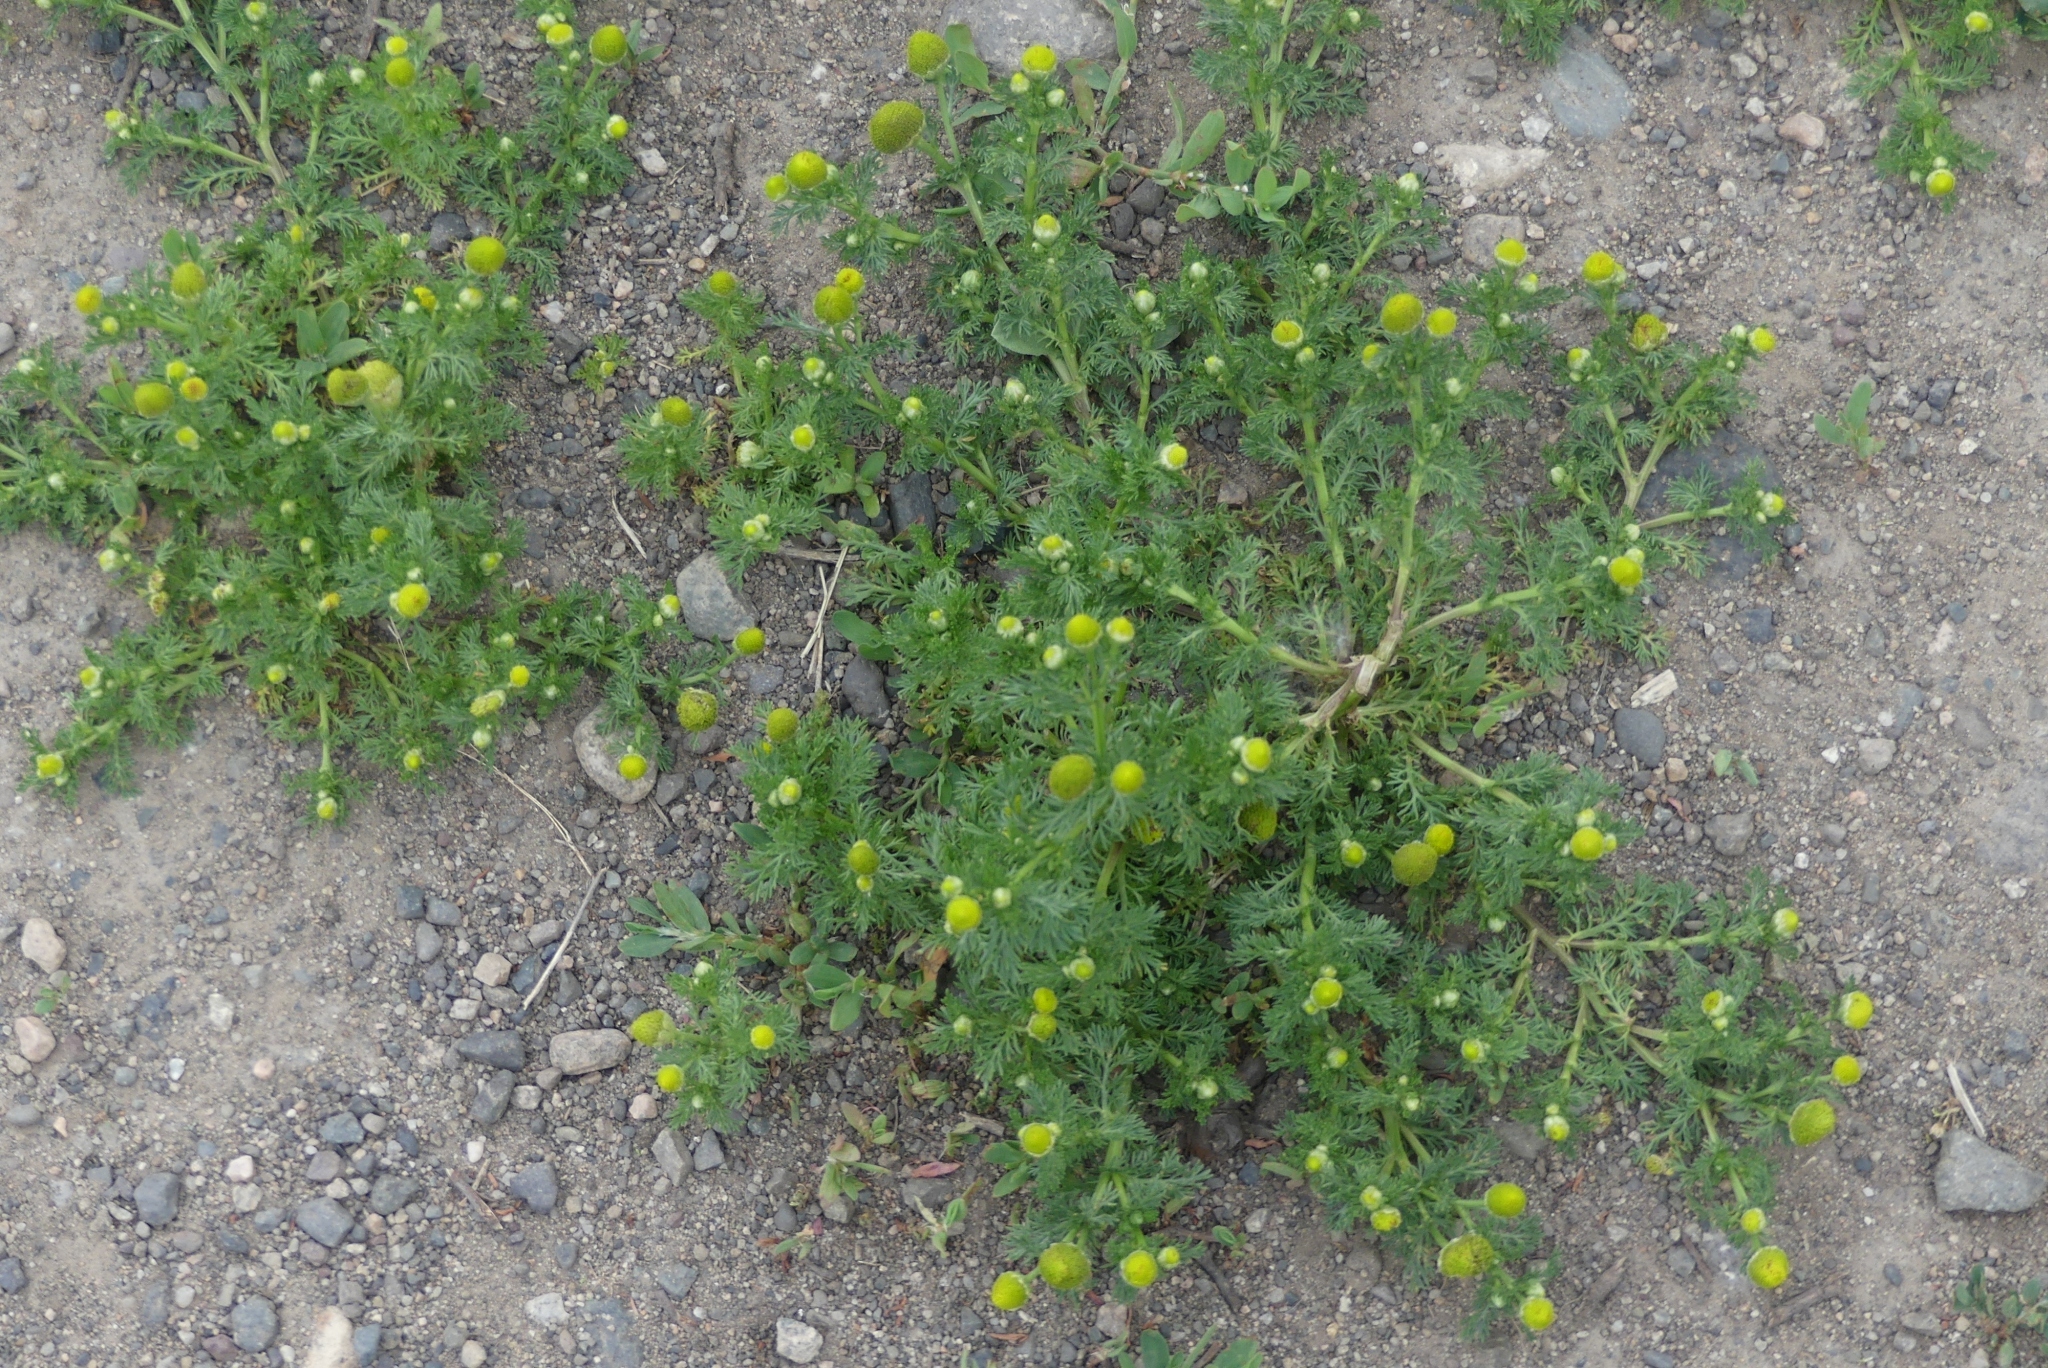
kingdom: Plantae
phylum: Tracheophyta
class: Magnoliopsida
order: Asterales
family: Asteraceae
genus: Matricaria
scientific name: Matricaria discoidea
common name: Disc mayweed
